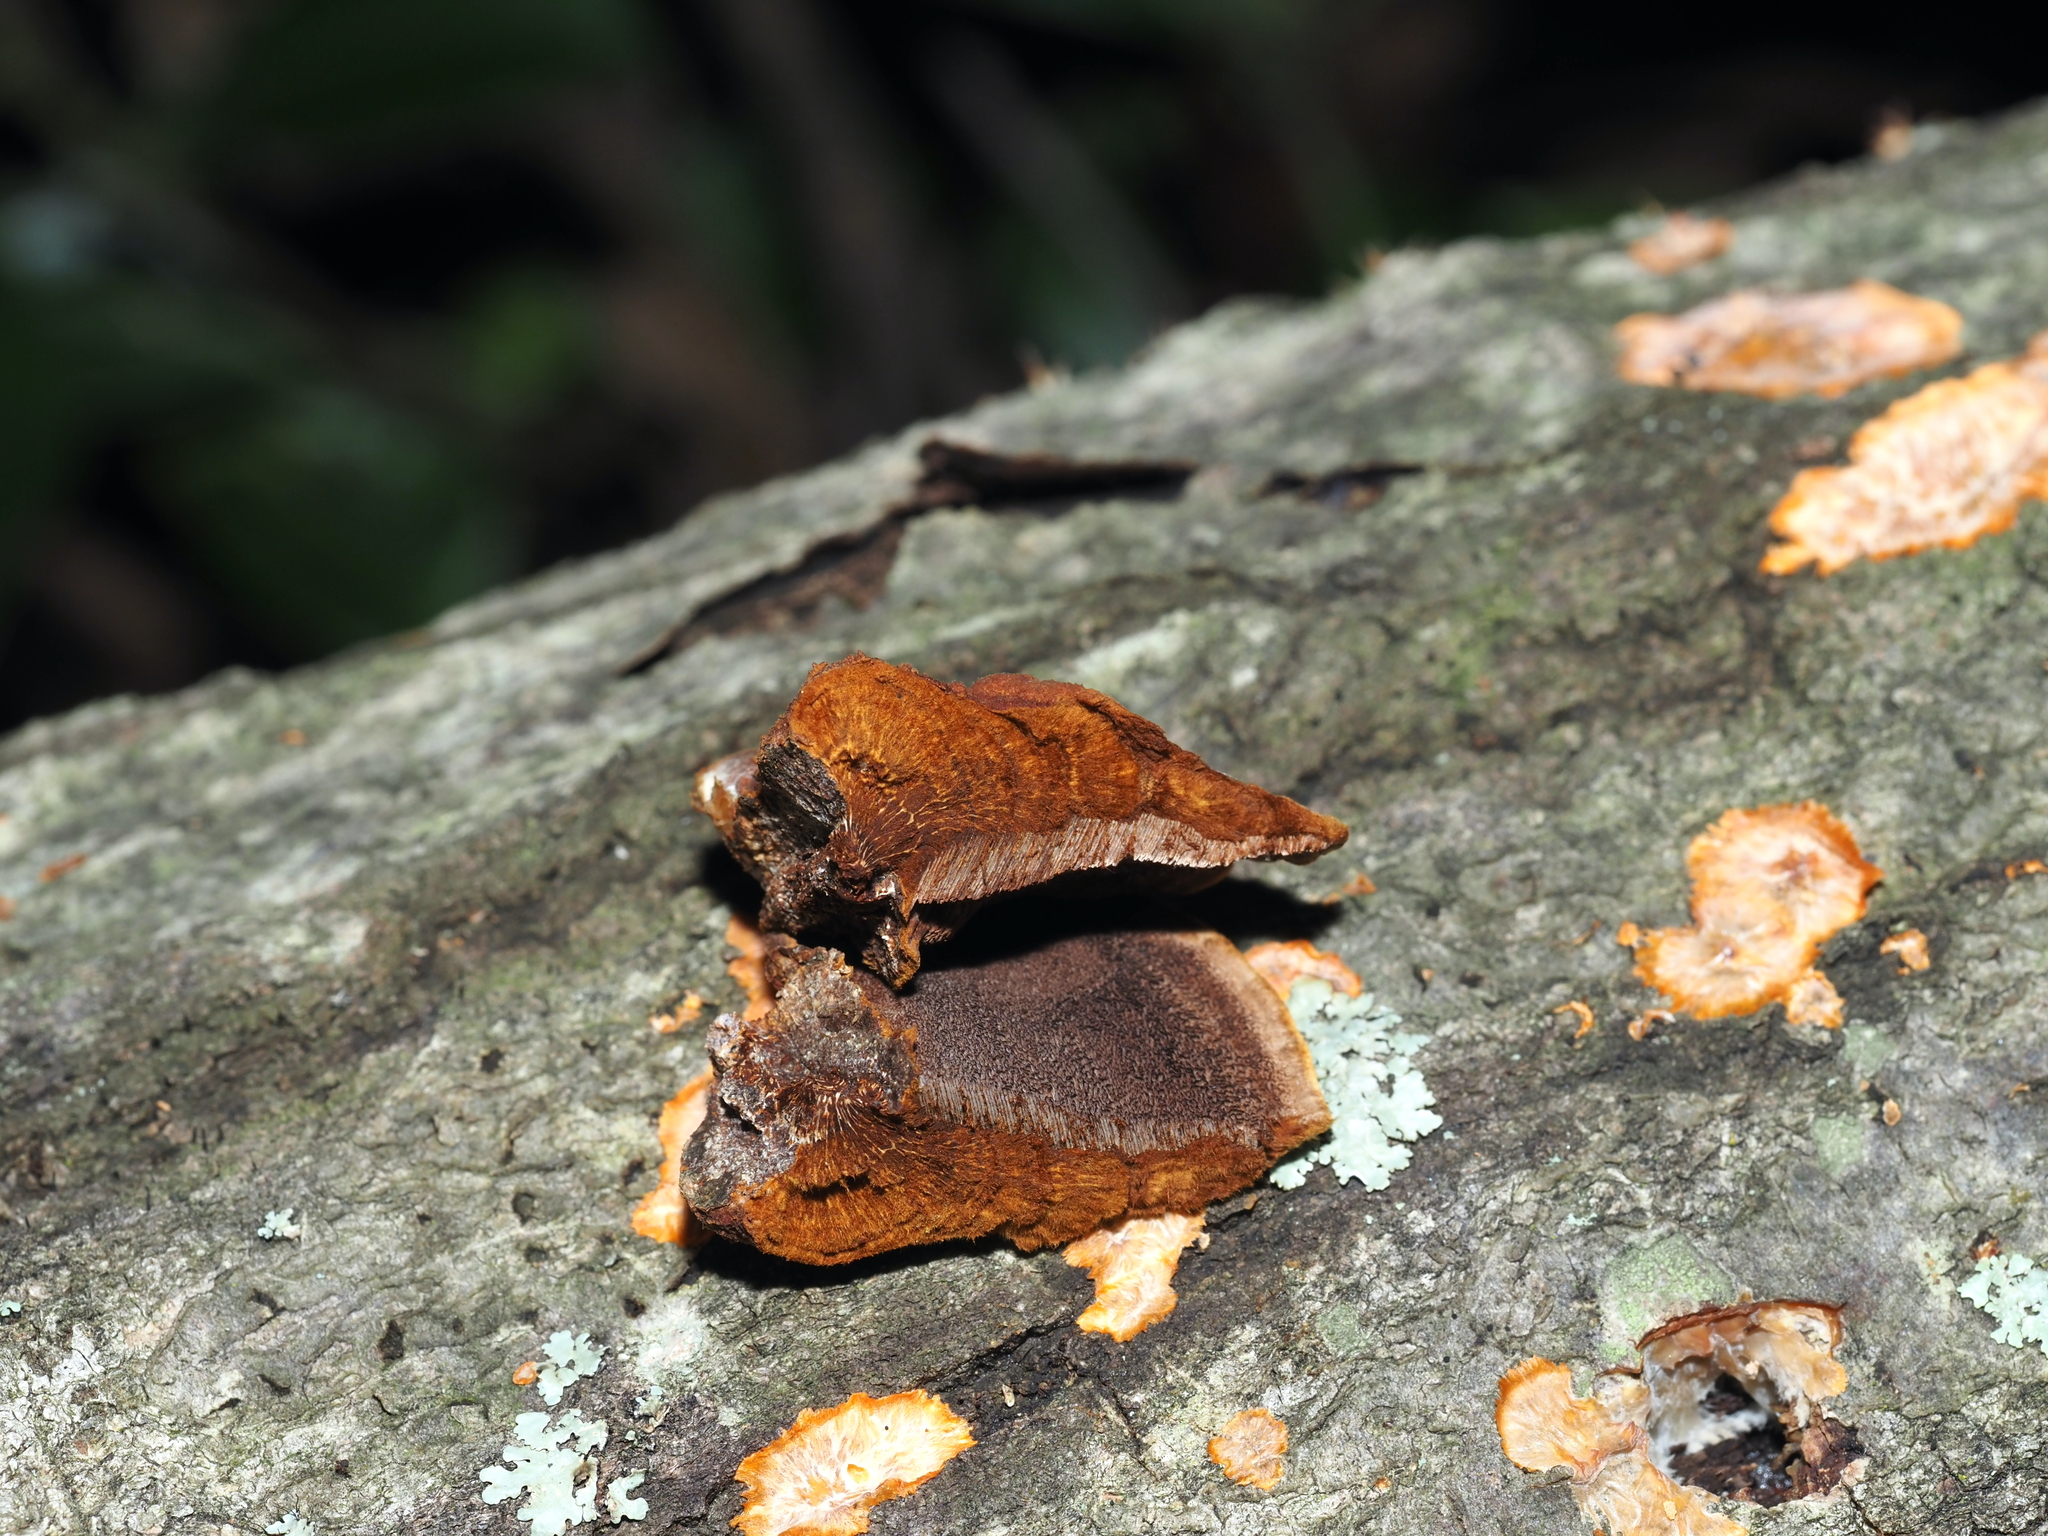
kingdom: Fungi
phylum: Basidiomycota
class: Agaricomycetes
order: Hymenochaetales
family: Hymenochaetaceae
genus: Phellinus
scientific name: Phellinus gilvus
